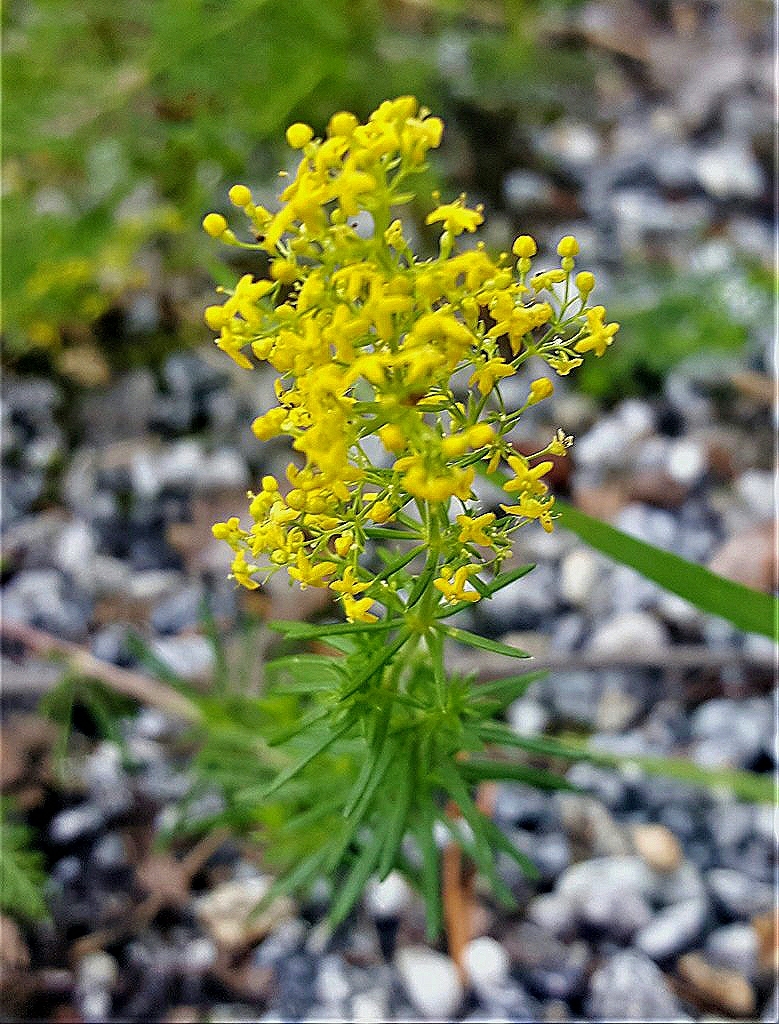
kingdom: Plantae
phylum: Tracheophyta
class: Magnoliopsida
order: Gentianales
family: Rubiaceae
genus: Galium
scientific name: Galium verum
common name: Lady's bedstraw
